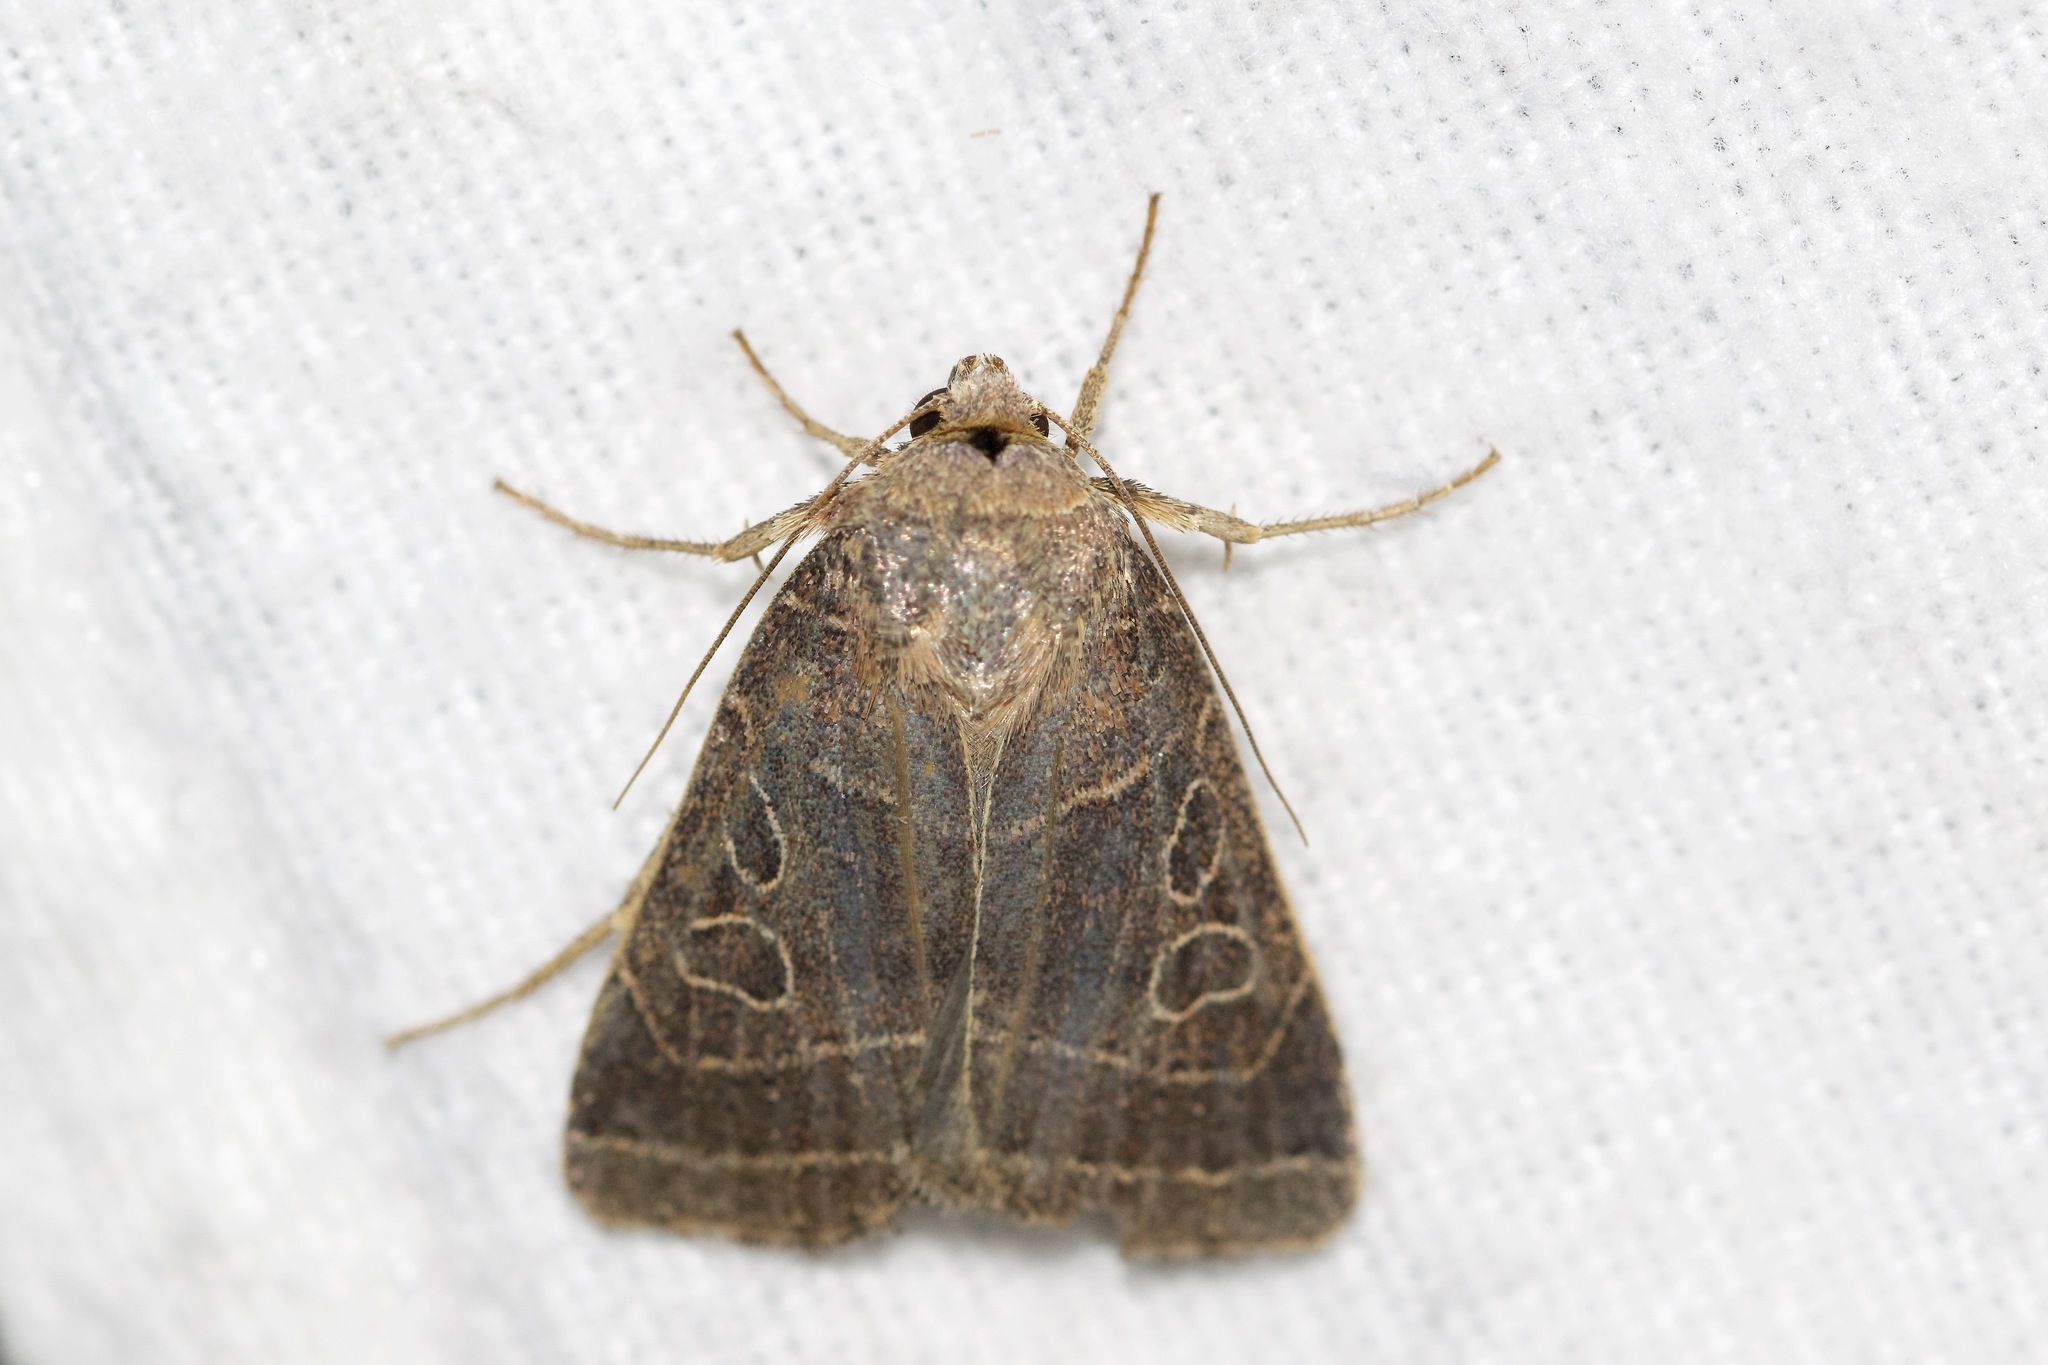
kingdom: Animalia
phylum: Arthropoda
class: Insecta
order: Lepidoptera
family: Noctuidae
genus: Orthodes
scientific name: Orthodes majuscula
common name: Rustic quaker
